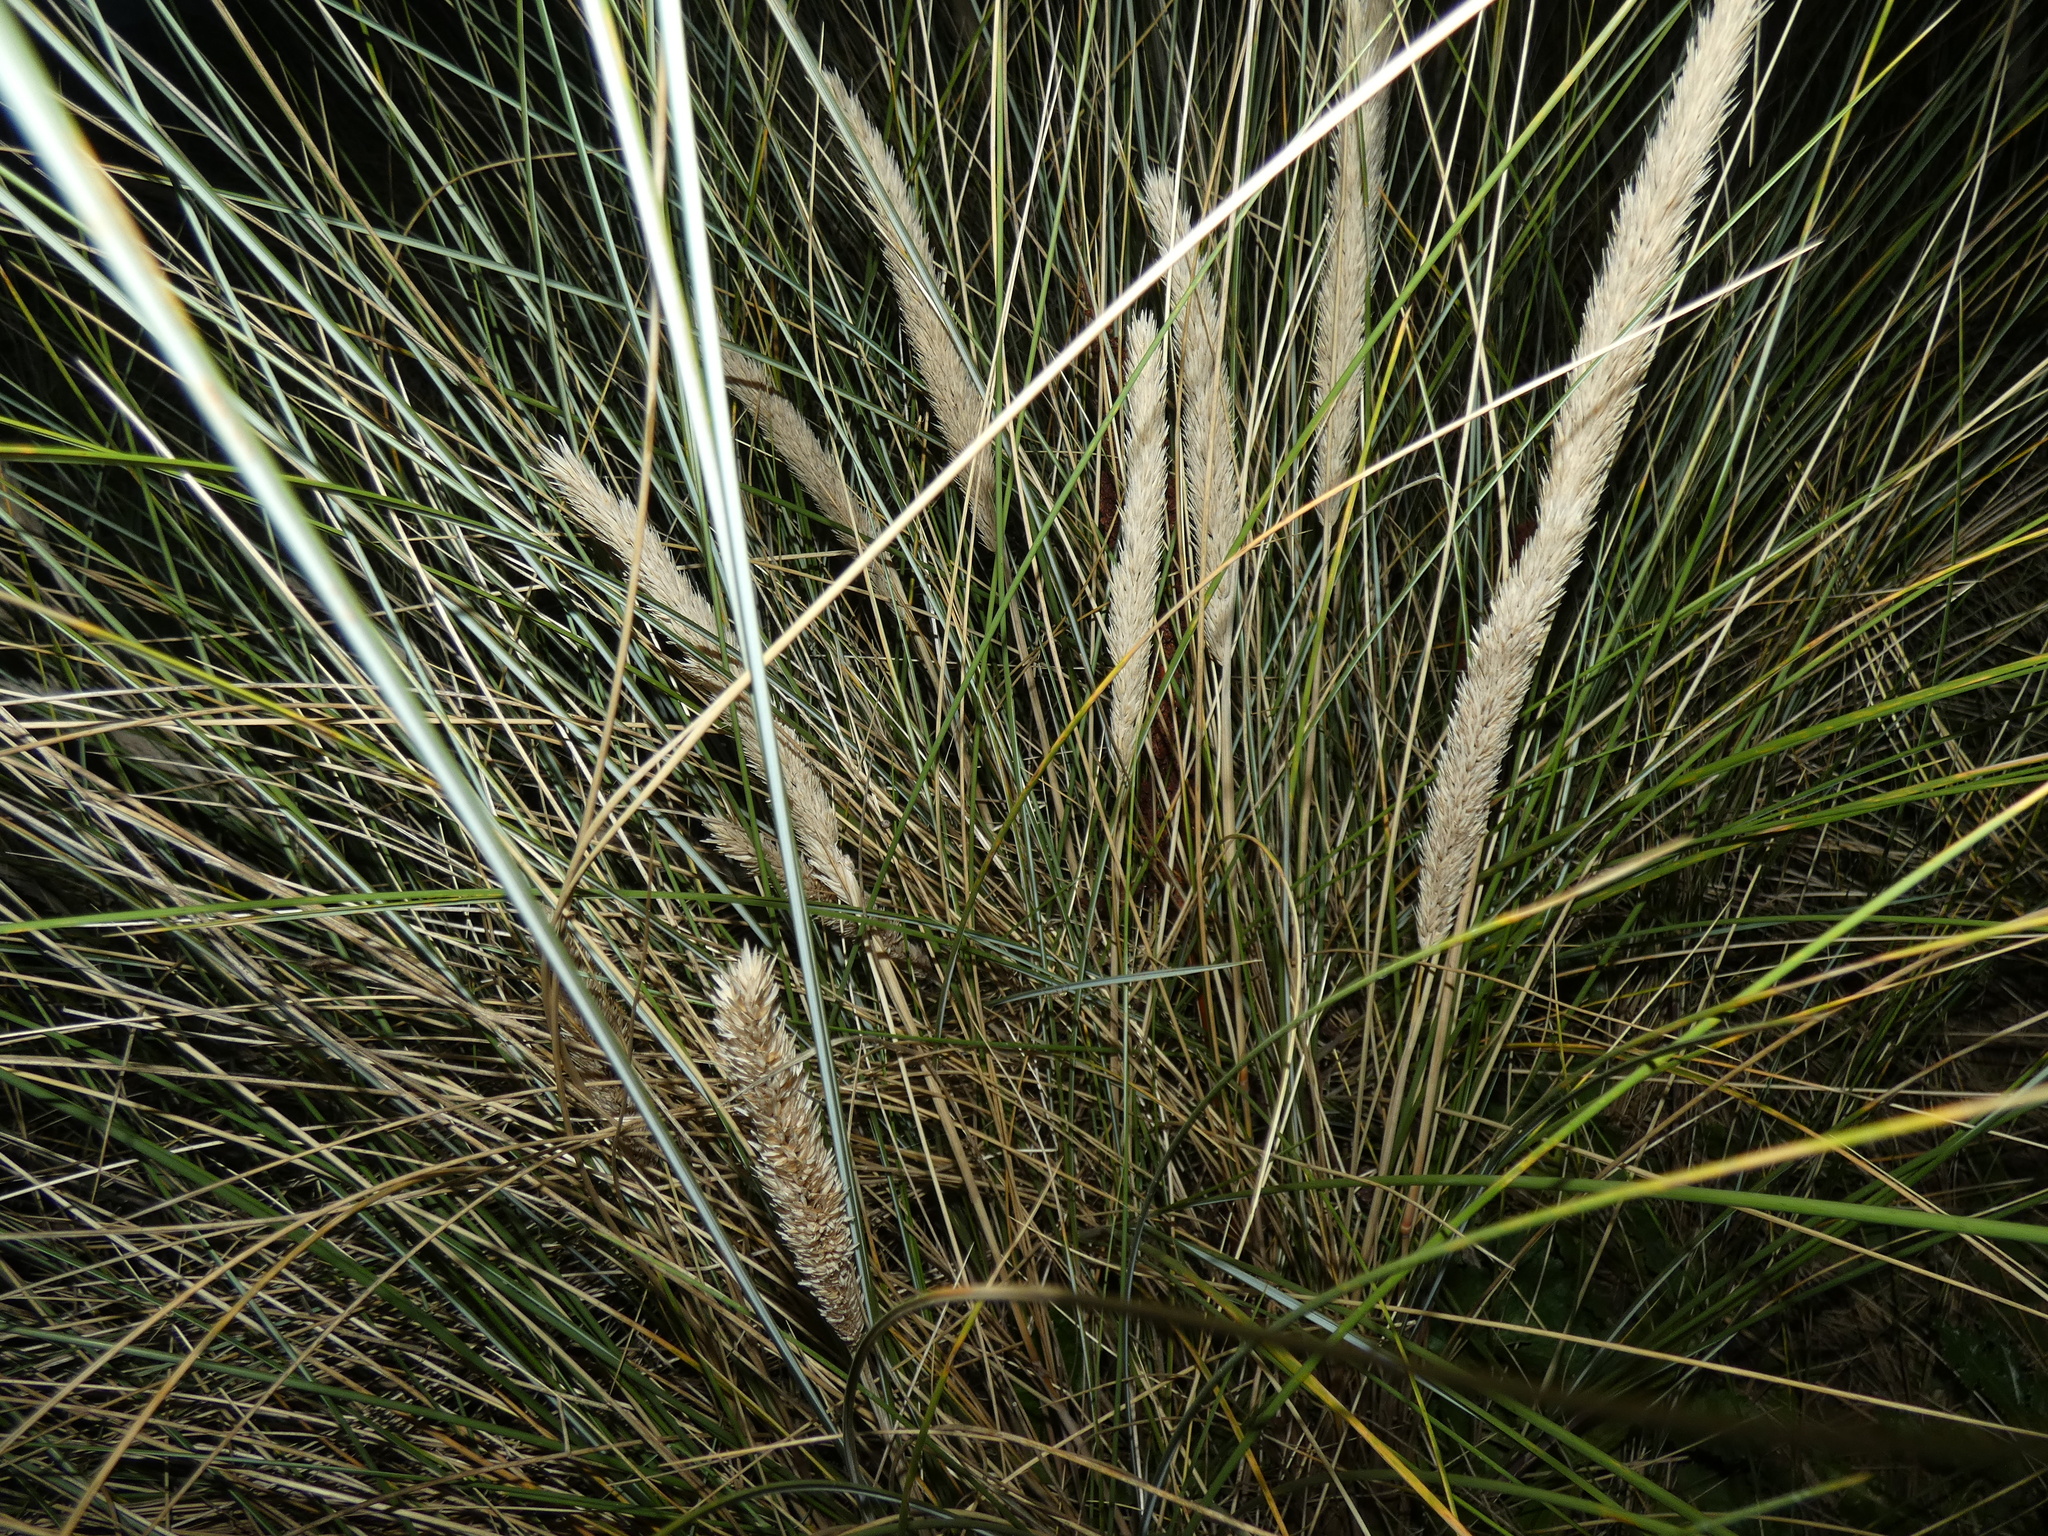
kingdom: Plantae
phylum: Tracheophyta
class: Liliopsida
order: Poales
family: Poaceae
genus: Calamagrostis
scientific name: Calamagrostis arenaria
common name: European beachgrass
